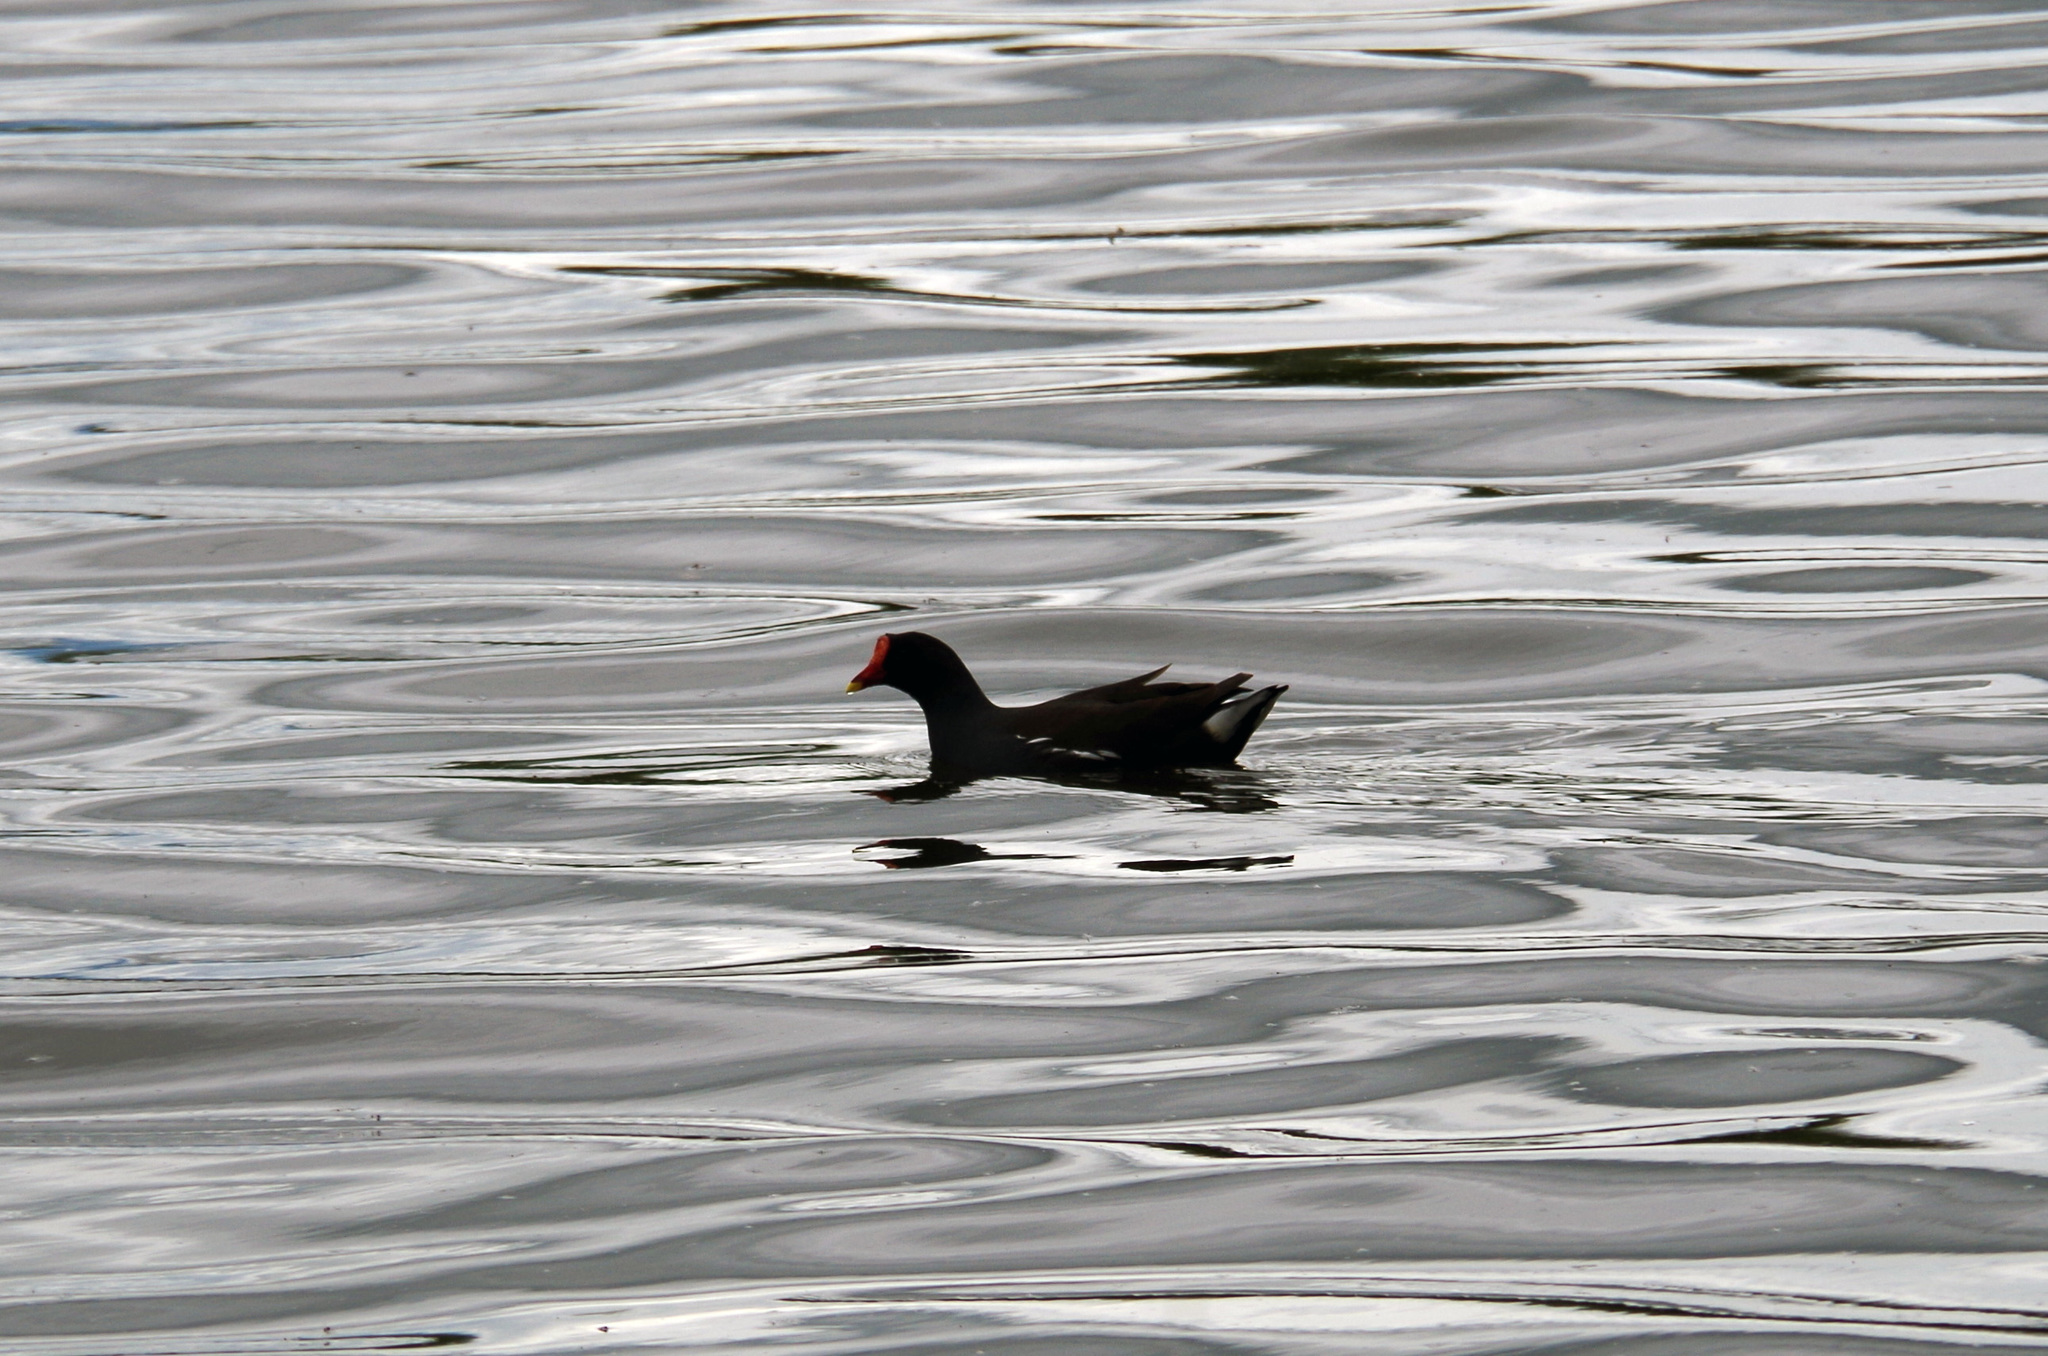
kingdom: Animalia
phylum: Chordata
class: Aves
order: Gruiformes
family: Rallidae
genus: Gallinula
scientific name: Gallinula chloropus
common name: Common moorhen
